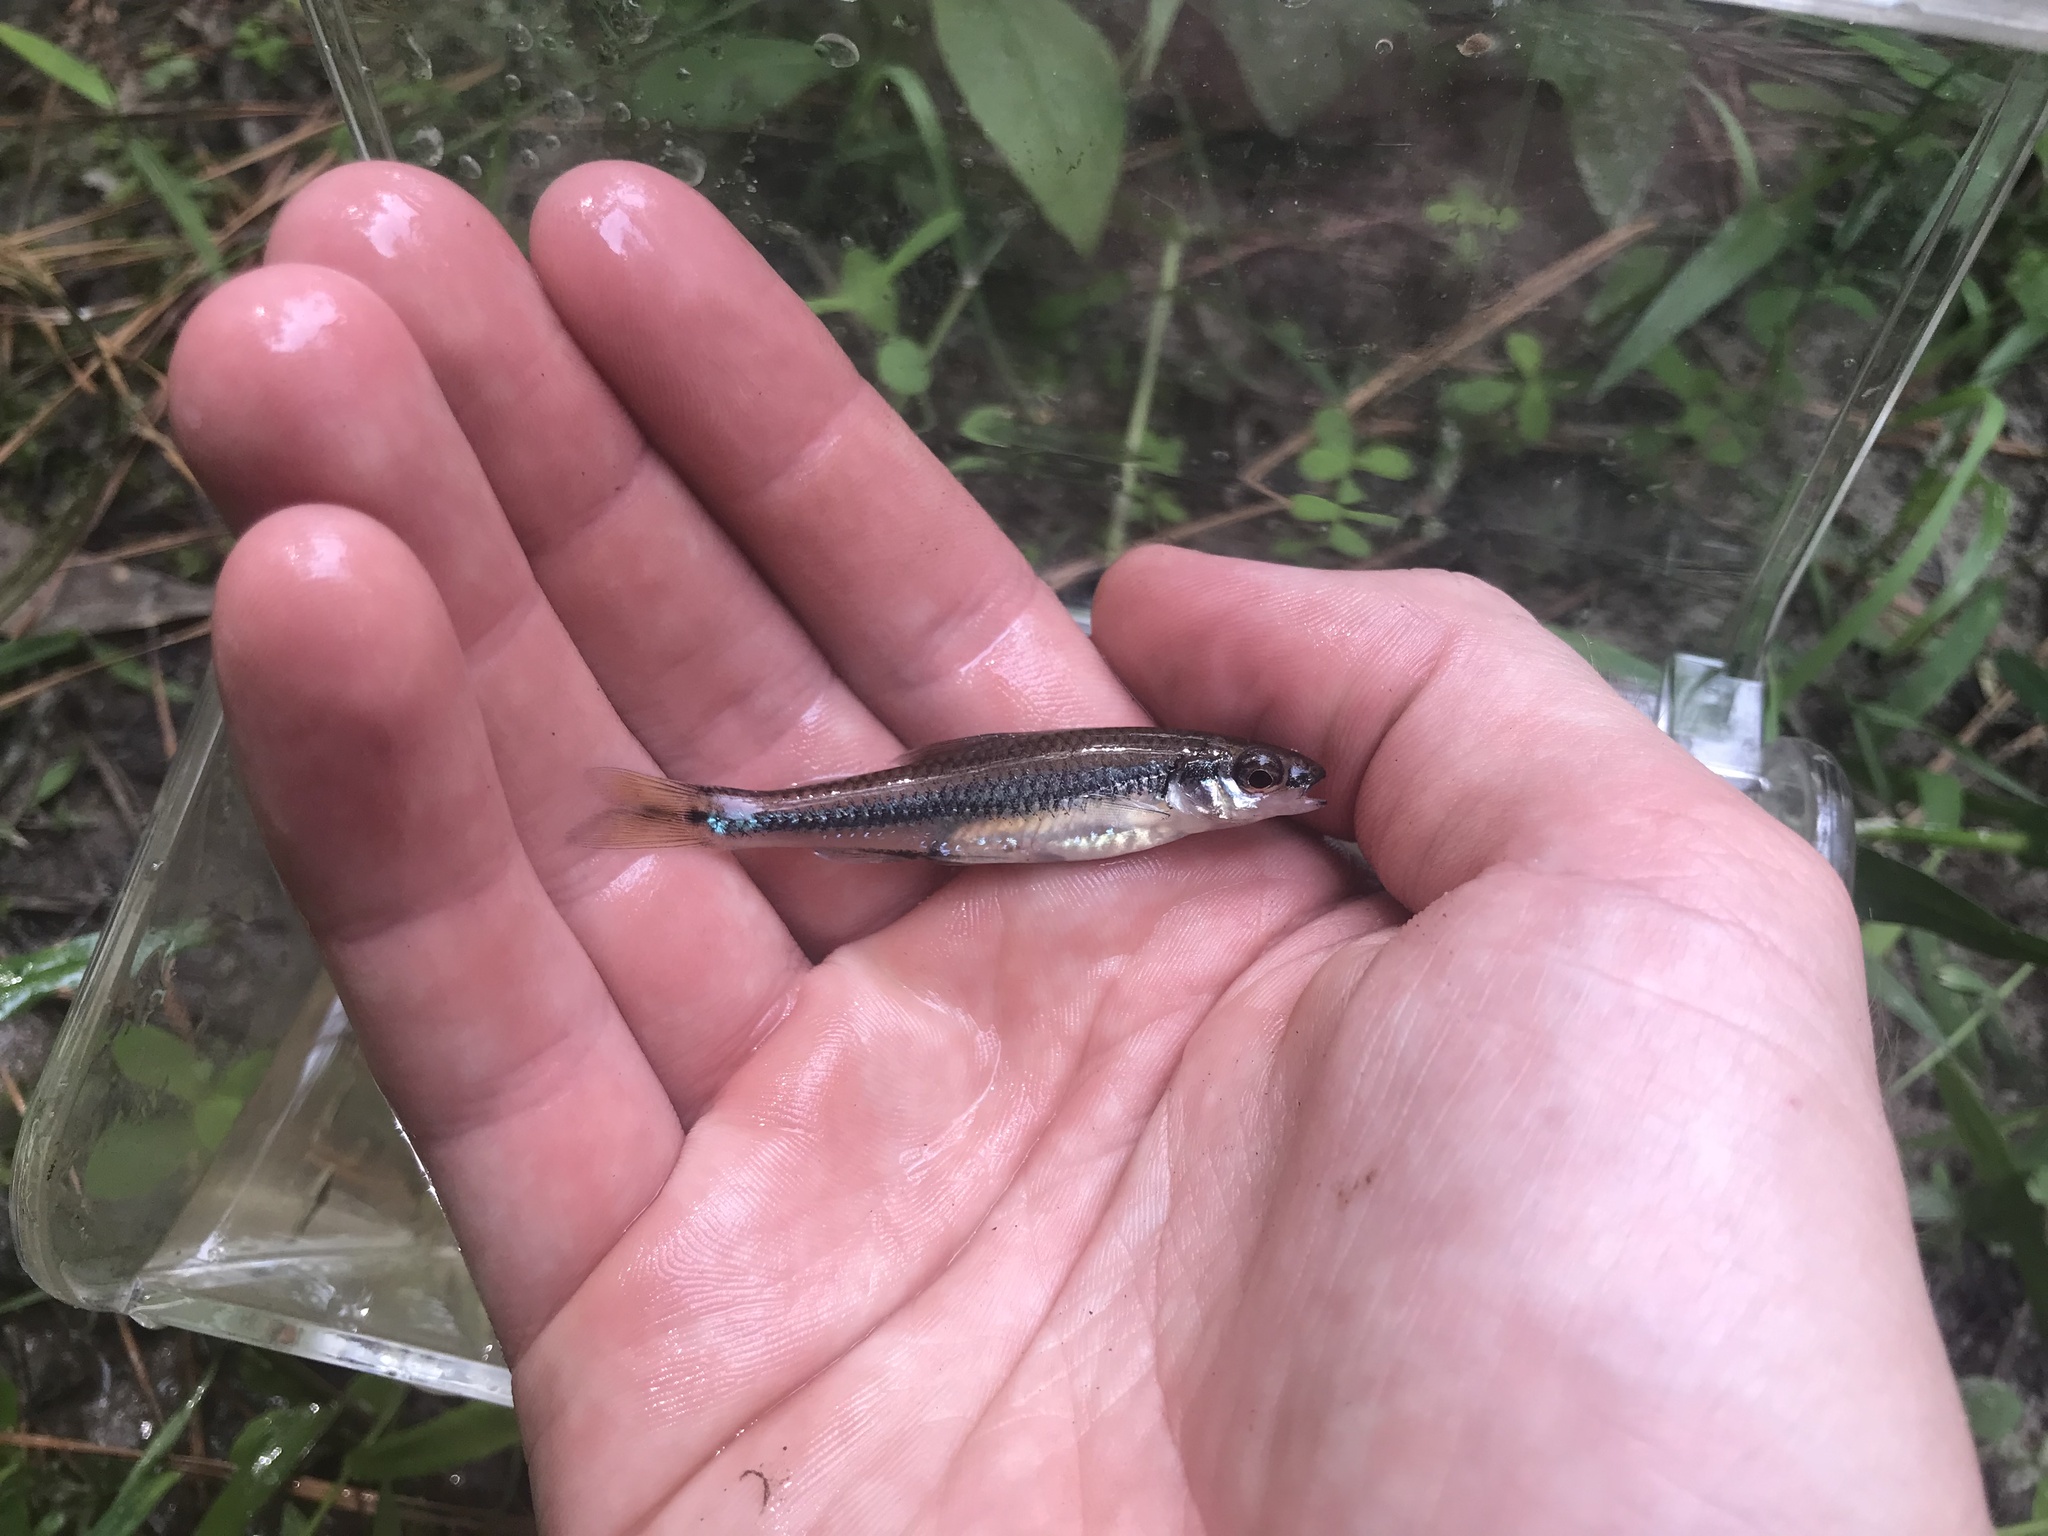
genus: Alburnops
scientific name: Alburnops
